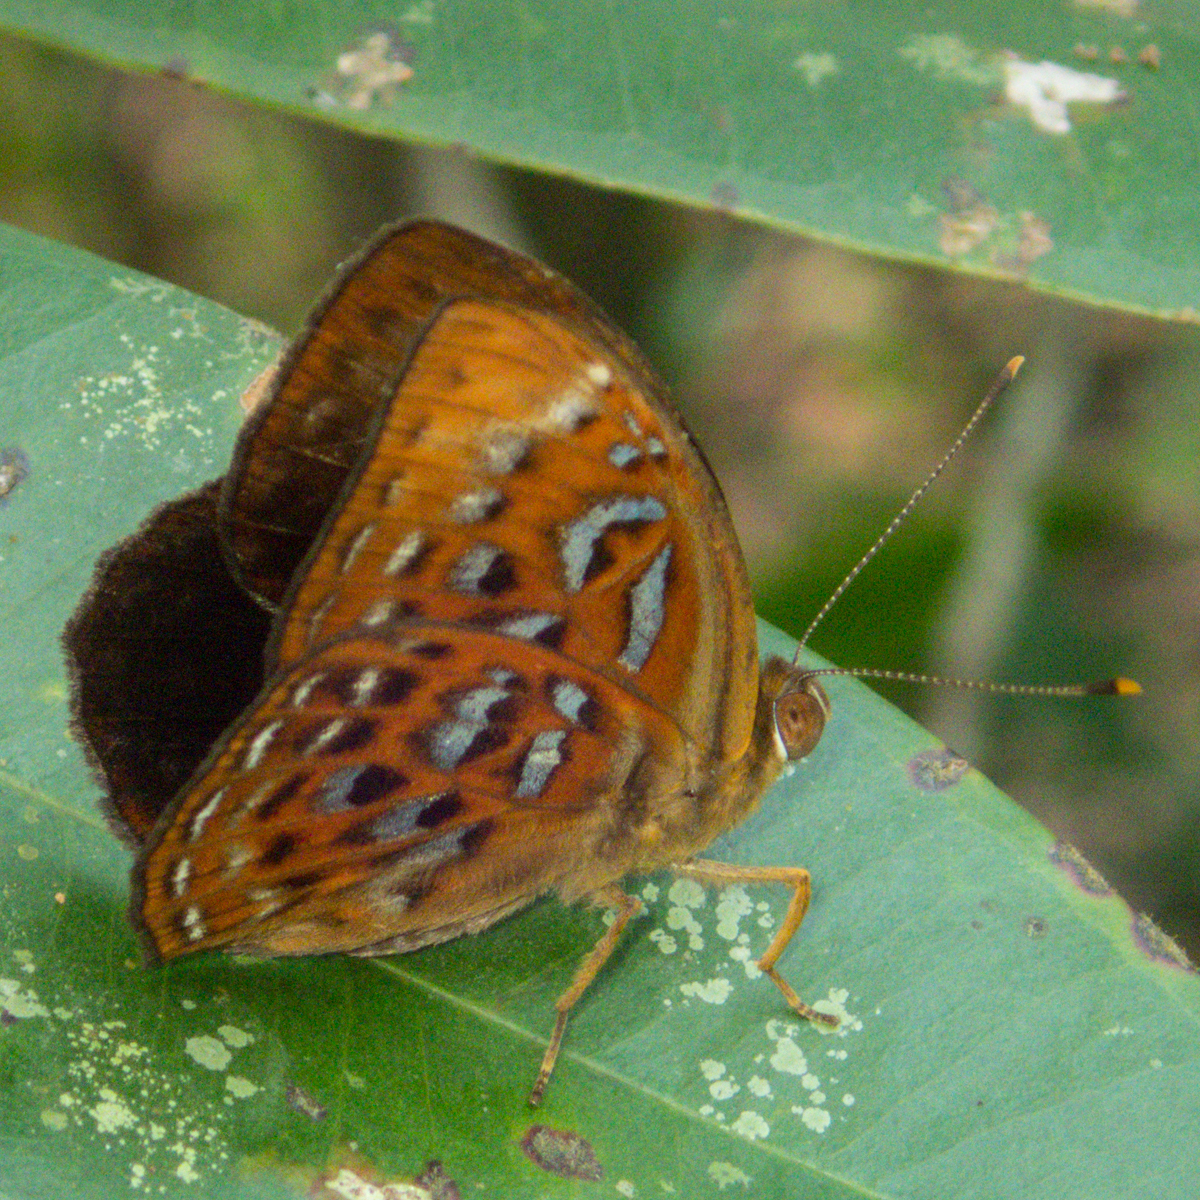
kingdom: Animalia
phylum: Arthropoda
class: Insecta
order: Lepidoptera
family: Erebidae
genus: Dysschema
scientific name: Dysschema
